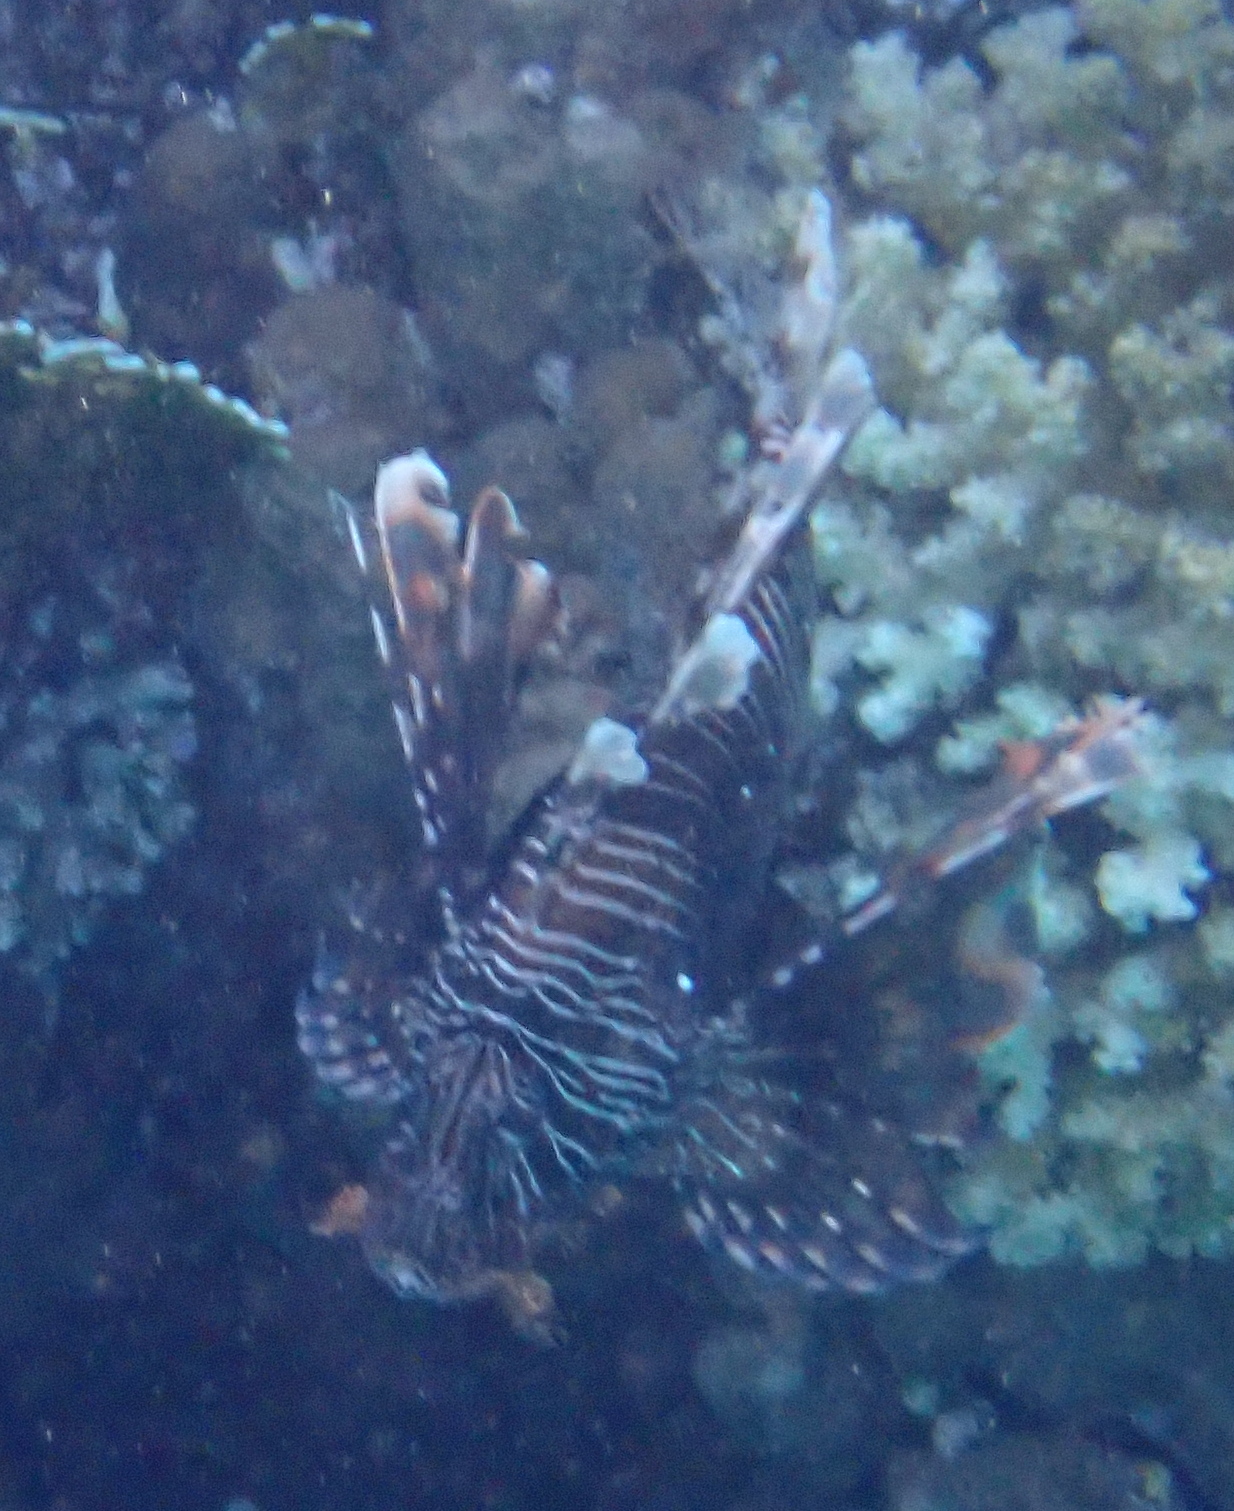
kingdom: Animalia
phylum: Chordata
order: Scorpaeniformes
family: Scorpaenidae
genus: Pterois
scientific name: Pterois miles
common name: Devil firefish
